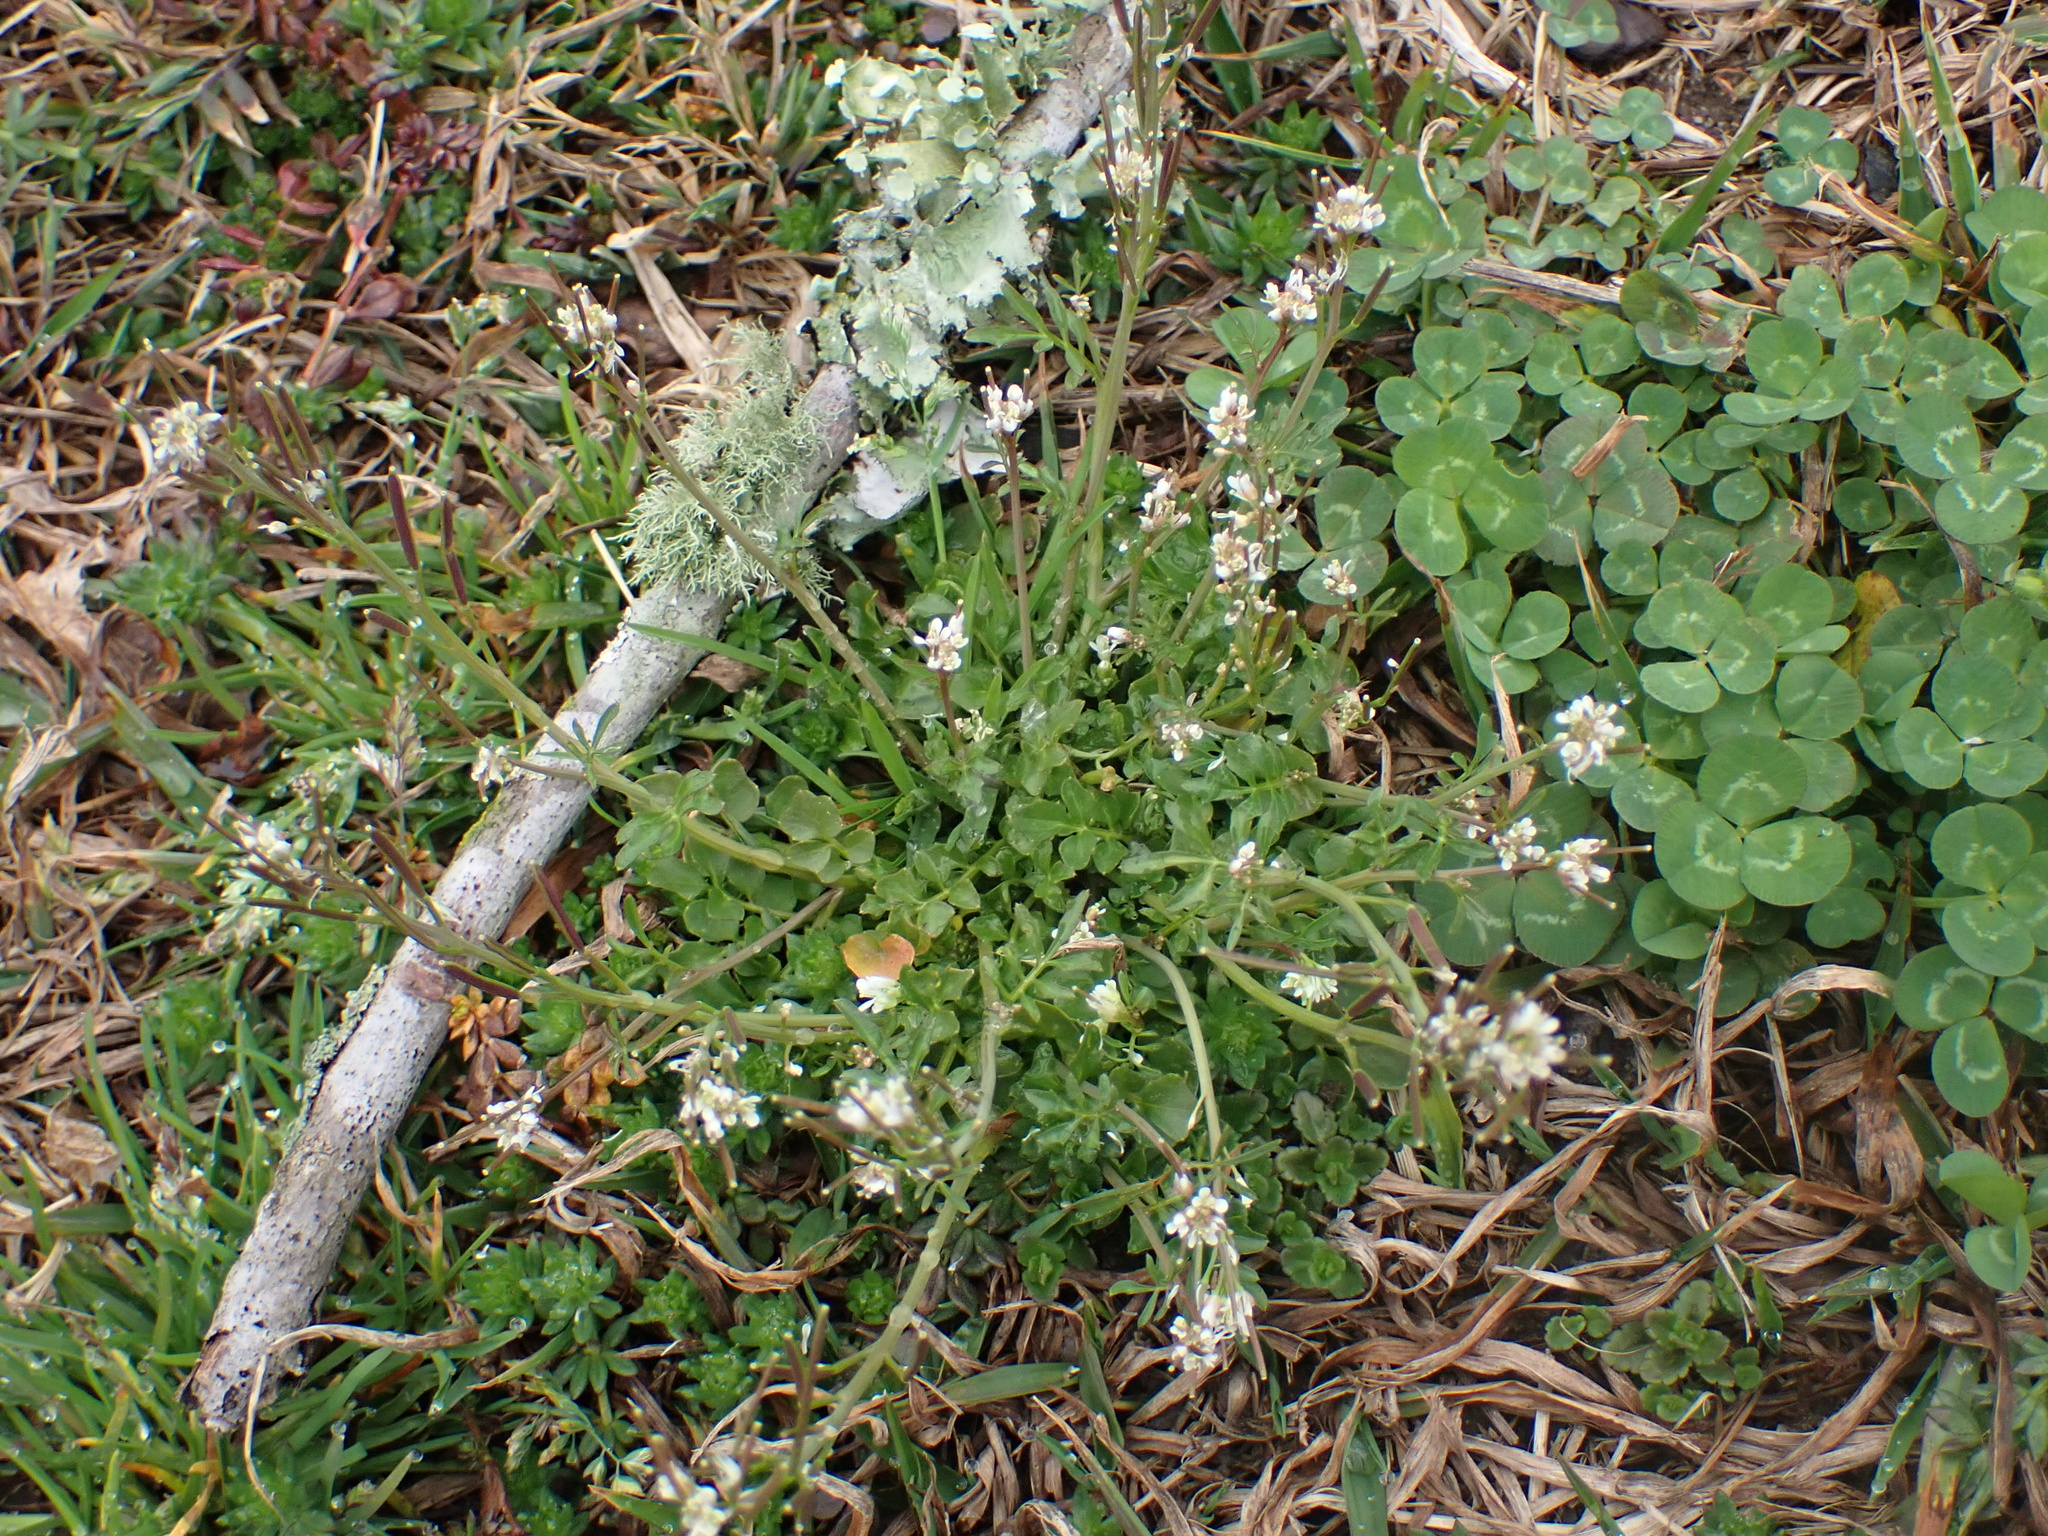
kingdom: Plantae
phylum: Tracheophyta
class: Magnoliopsida
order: Brassicales
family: Brassicaceae
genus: Cardamine
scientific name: Cardamine hirsuta
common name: Hairy bittercress
